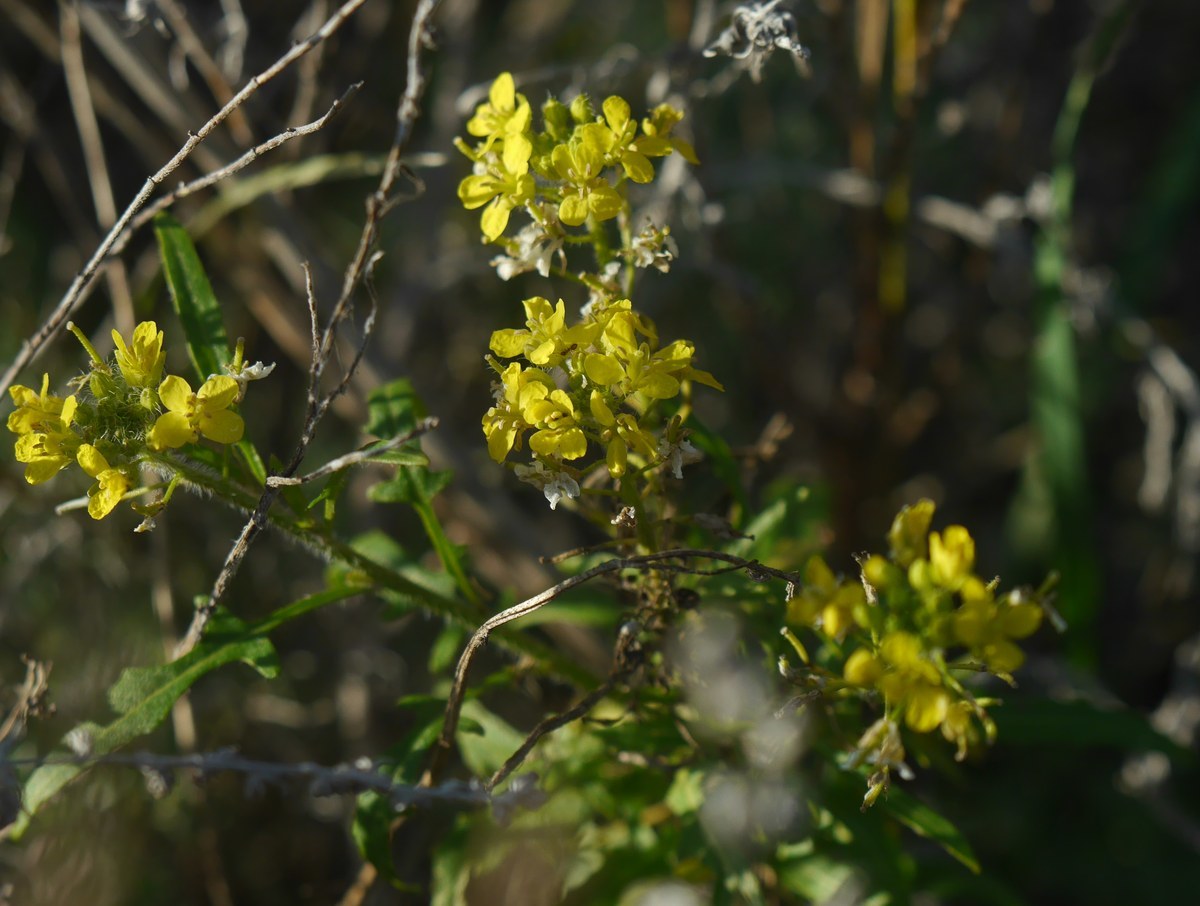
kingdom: Plantae
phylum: Tracheophyta
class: Magnoliopsida
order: Brassicales
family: Brassicaceae
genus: Sisymbrium
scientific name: Sisymbrium loeselii
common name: False london-rocket
